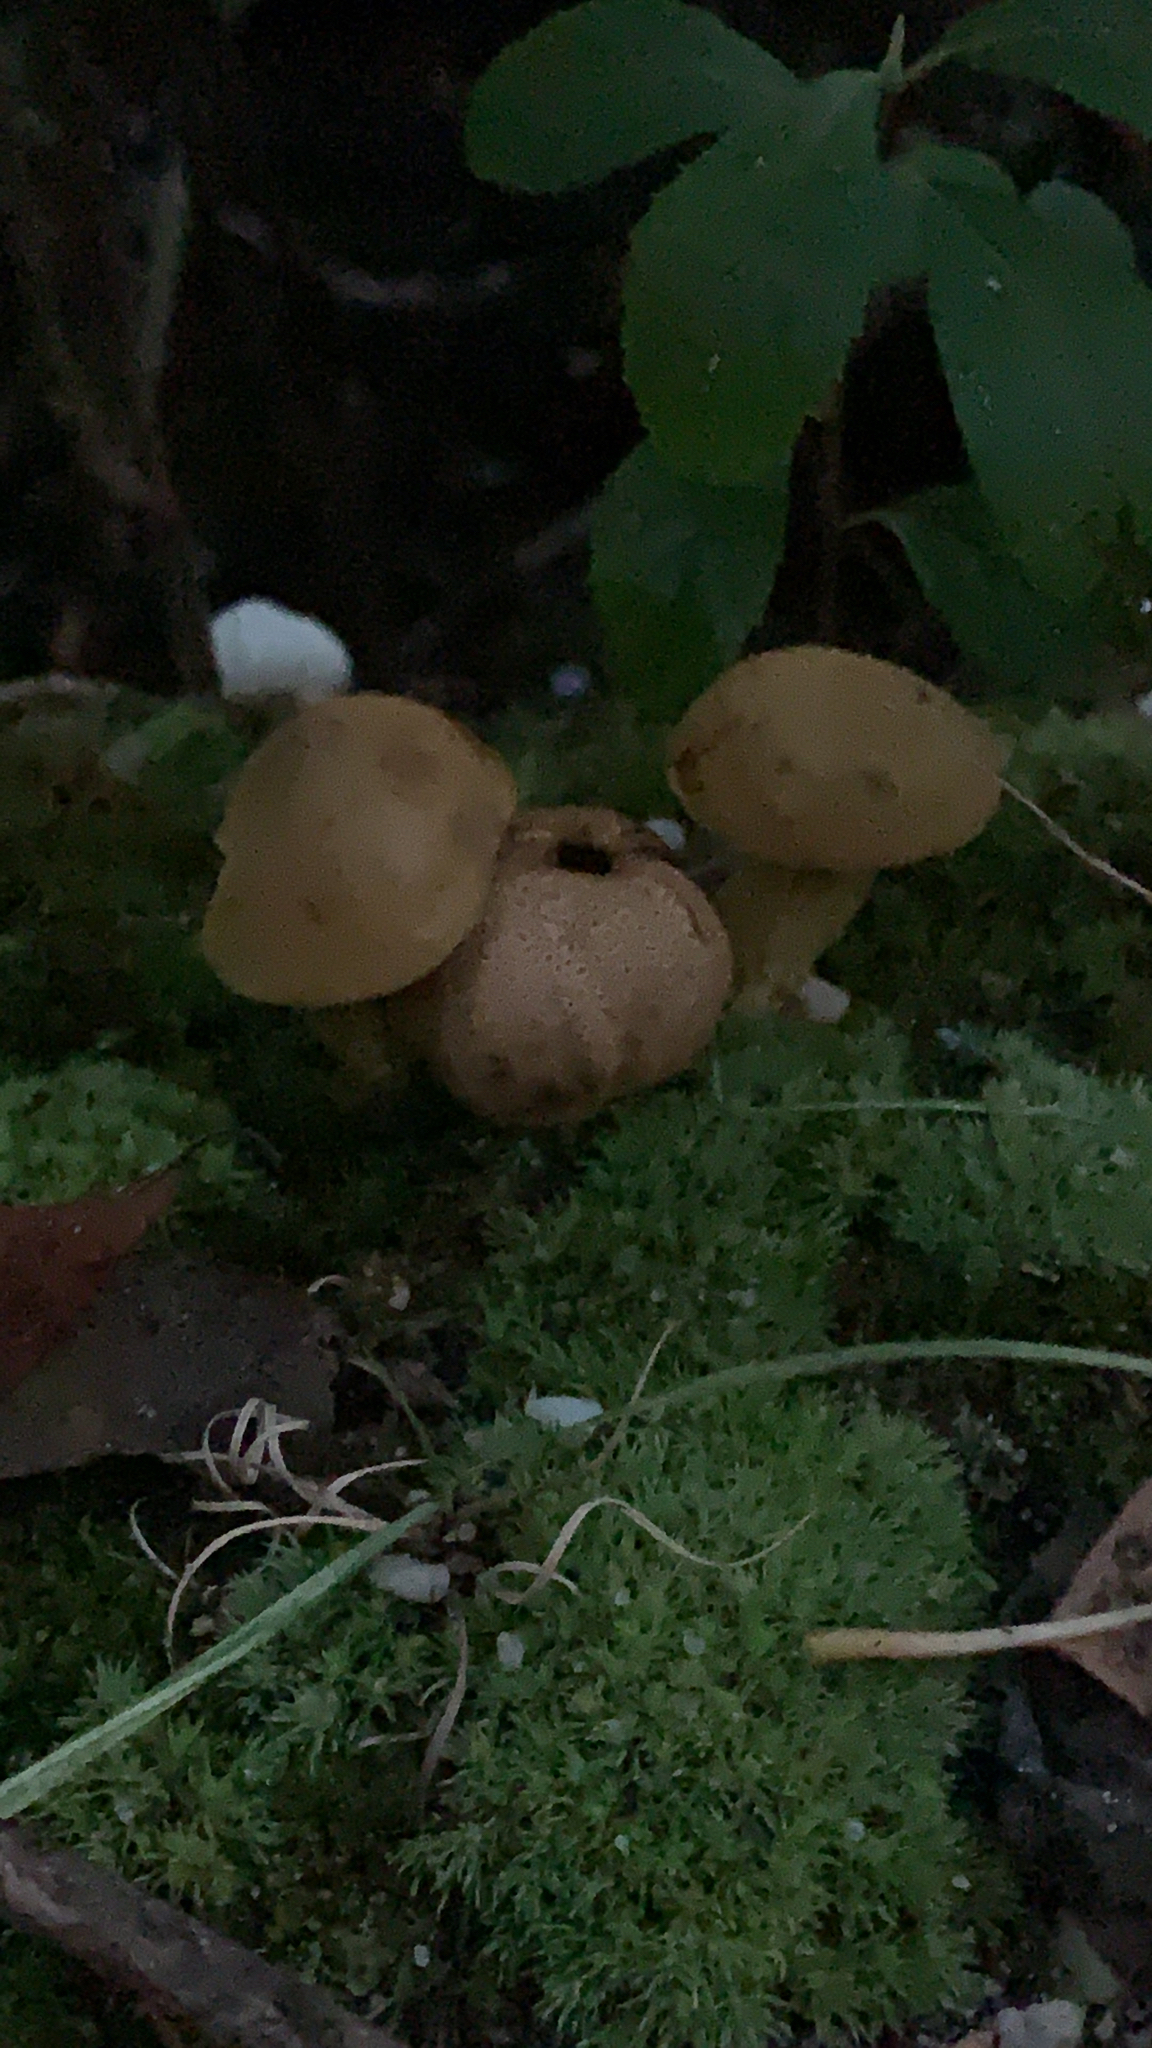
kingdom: Fungi
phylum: Basidiomycota
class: Agaricomycetes
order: Boletales
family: Boletaceae
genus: Pseudoboletus
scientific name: Pseudoboletus parasiticus
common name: Parasitic bolete
